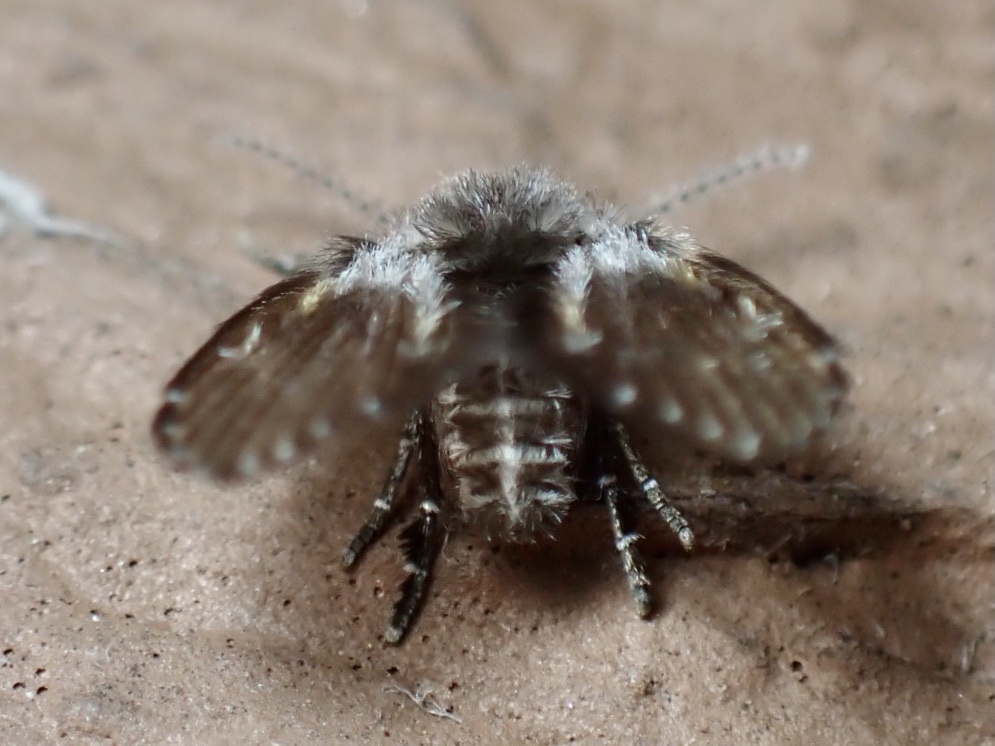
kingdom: Animalia
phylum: Arthropoda
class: Insecta
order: Diptera
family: Psychodidae
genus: Clogmia
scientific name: Clogmia albipunctatus
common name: White-spotted moth fly
